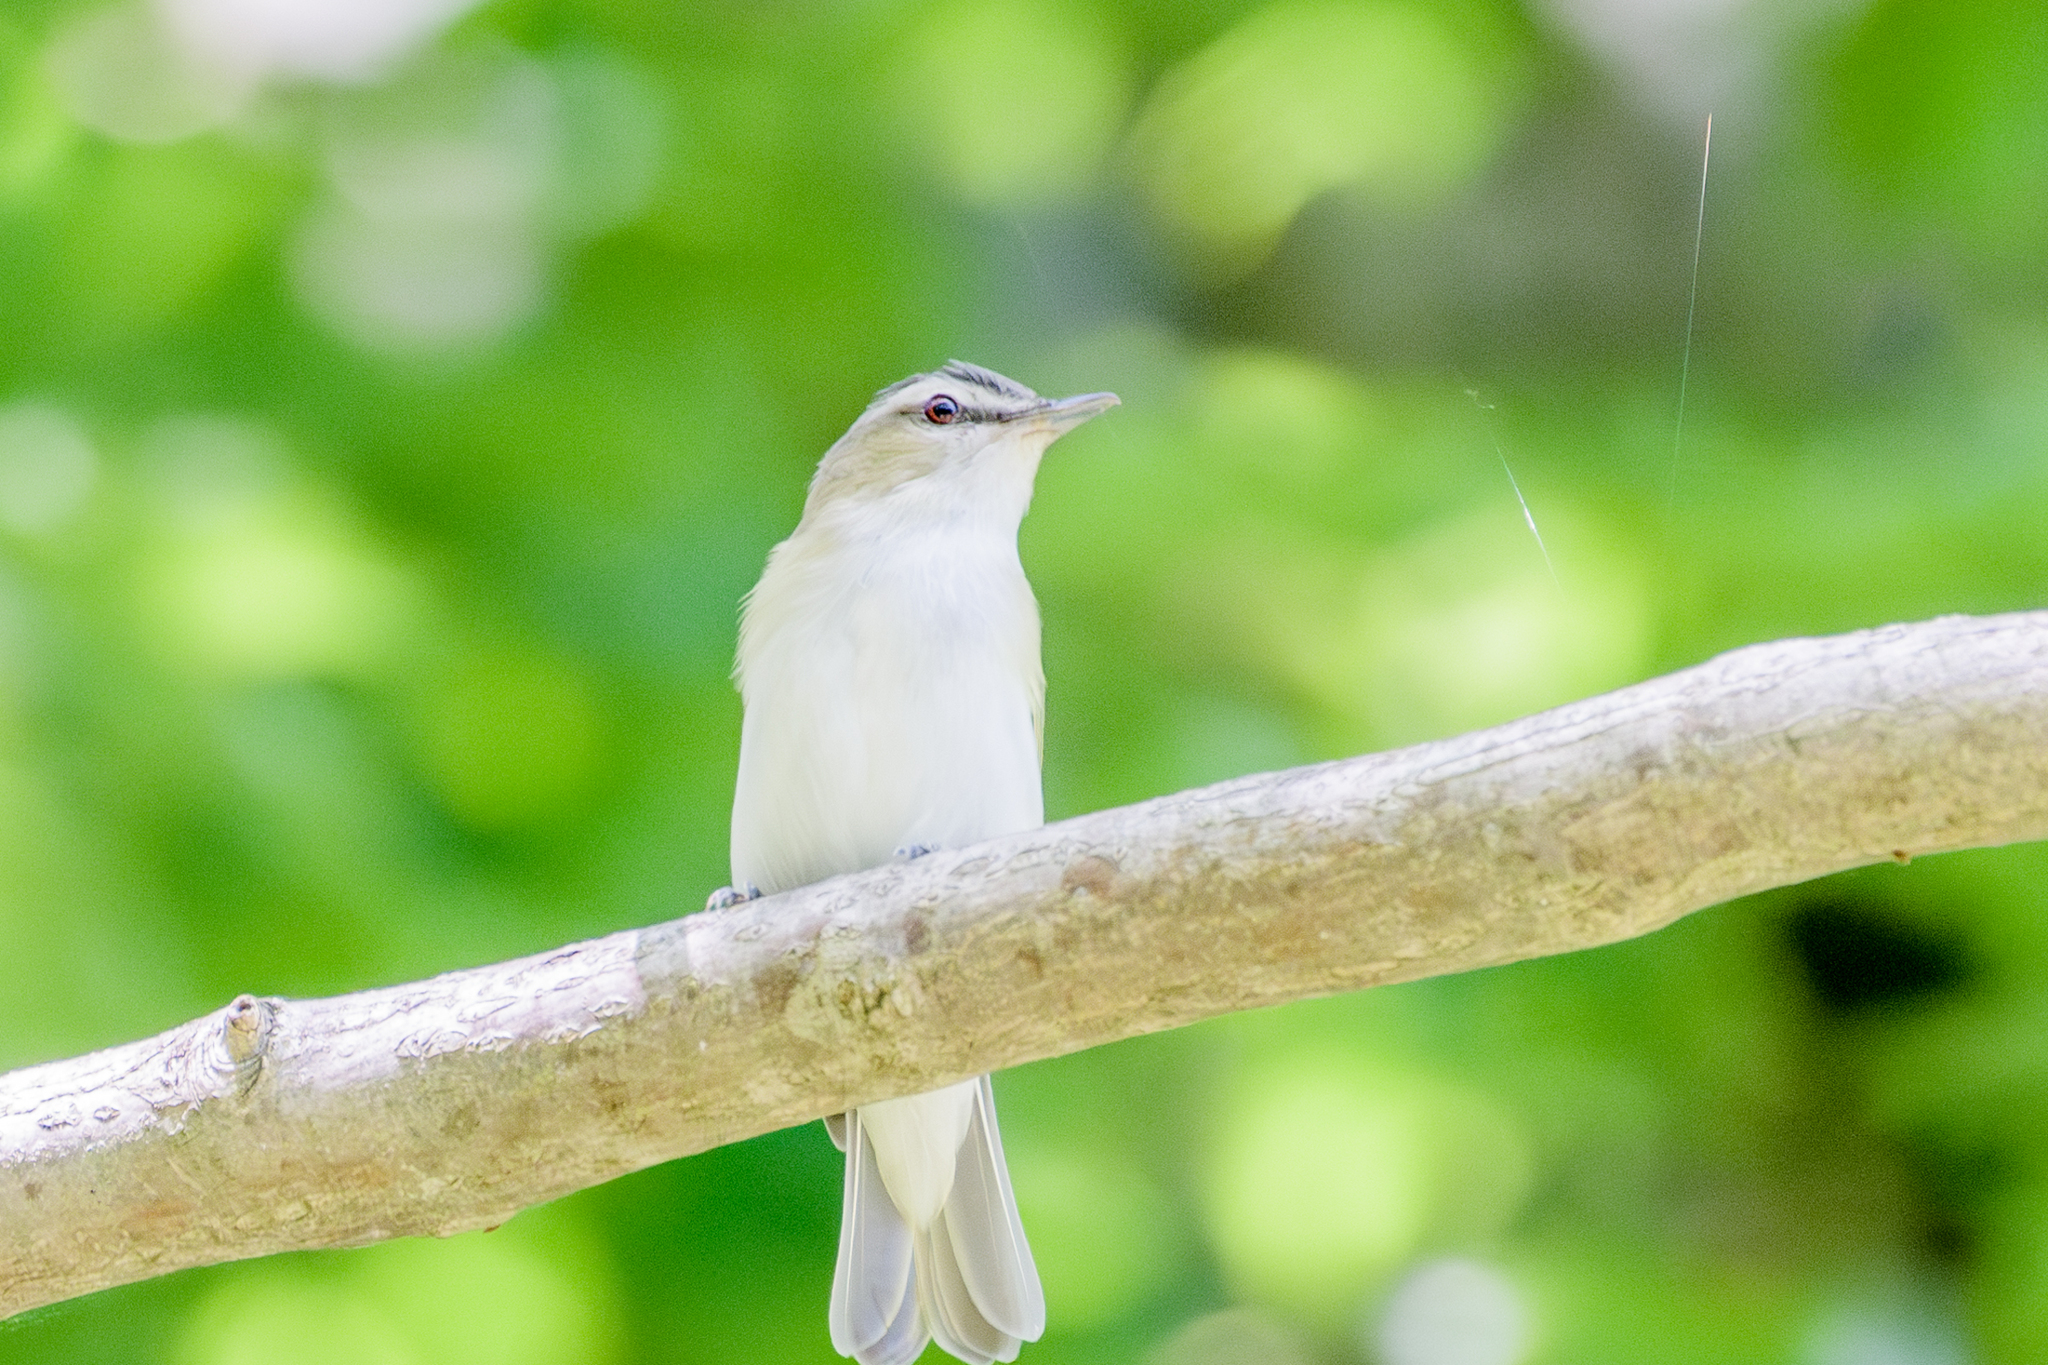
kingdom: Animalia
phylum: Chordata
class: Aves
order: Passeriformes
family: Vireonidae
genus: Vireo
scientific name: Vireo olivaceus
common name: Red-eyed vireo
